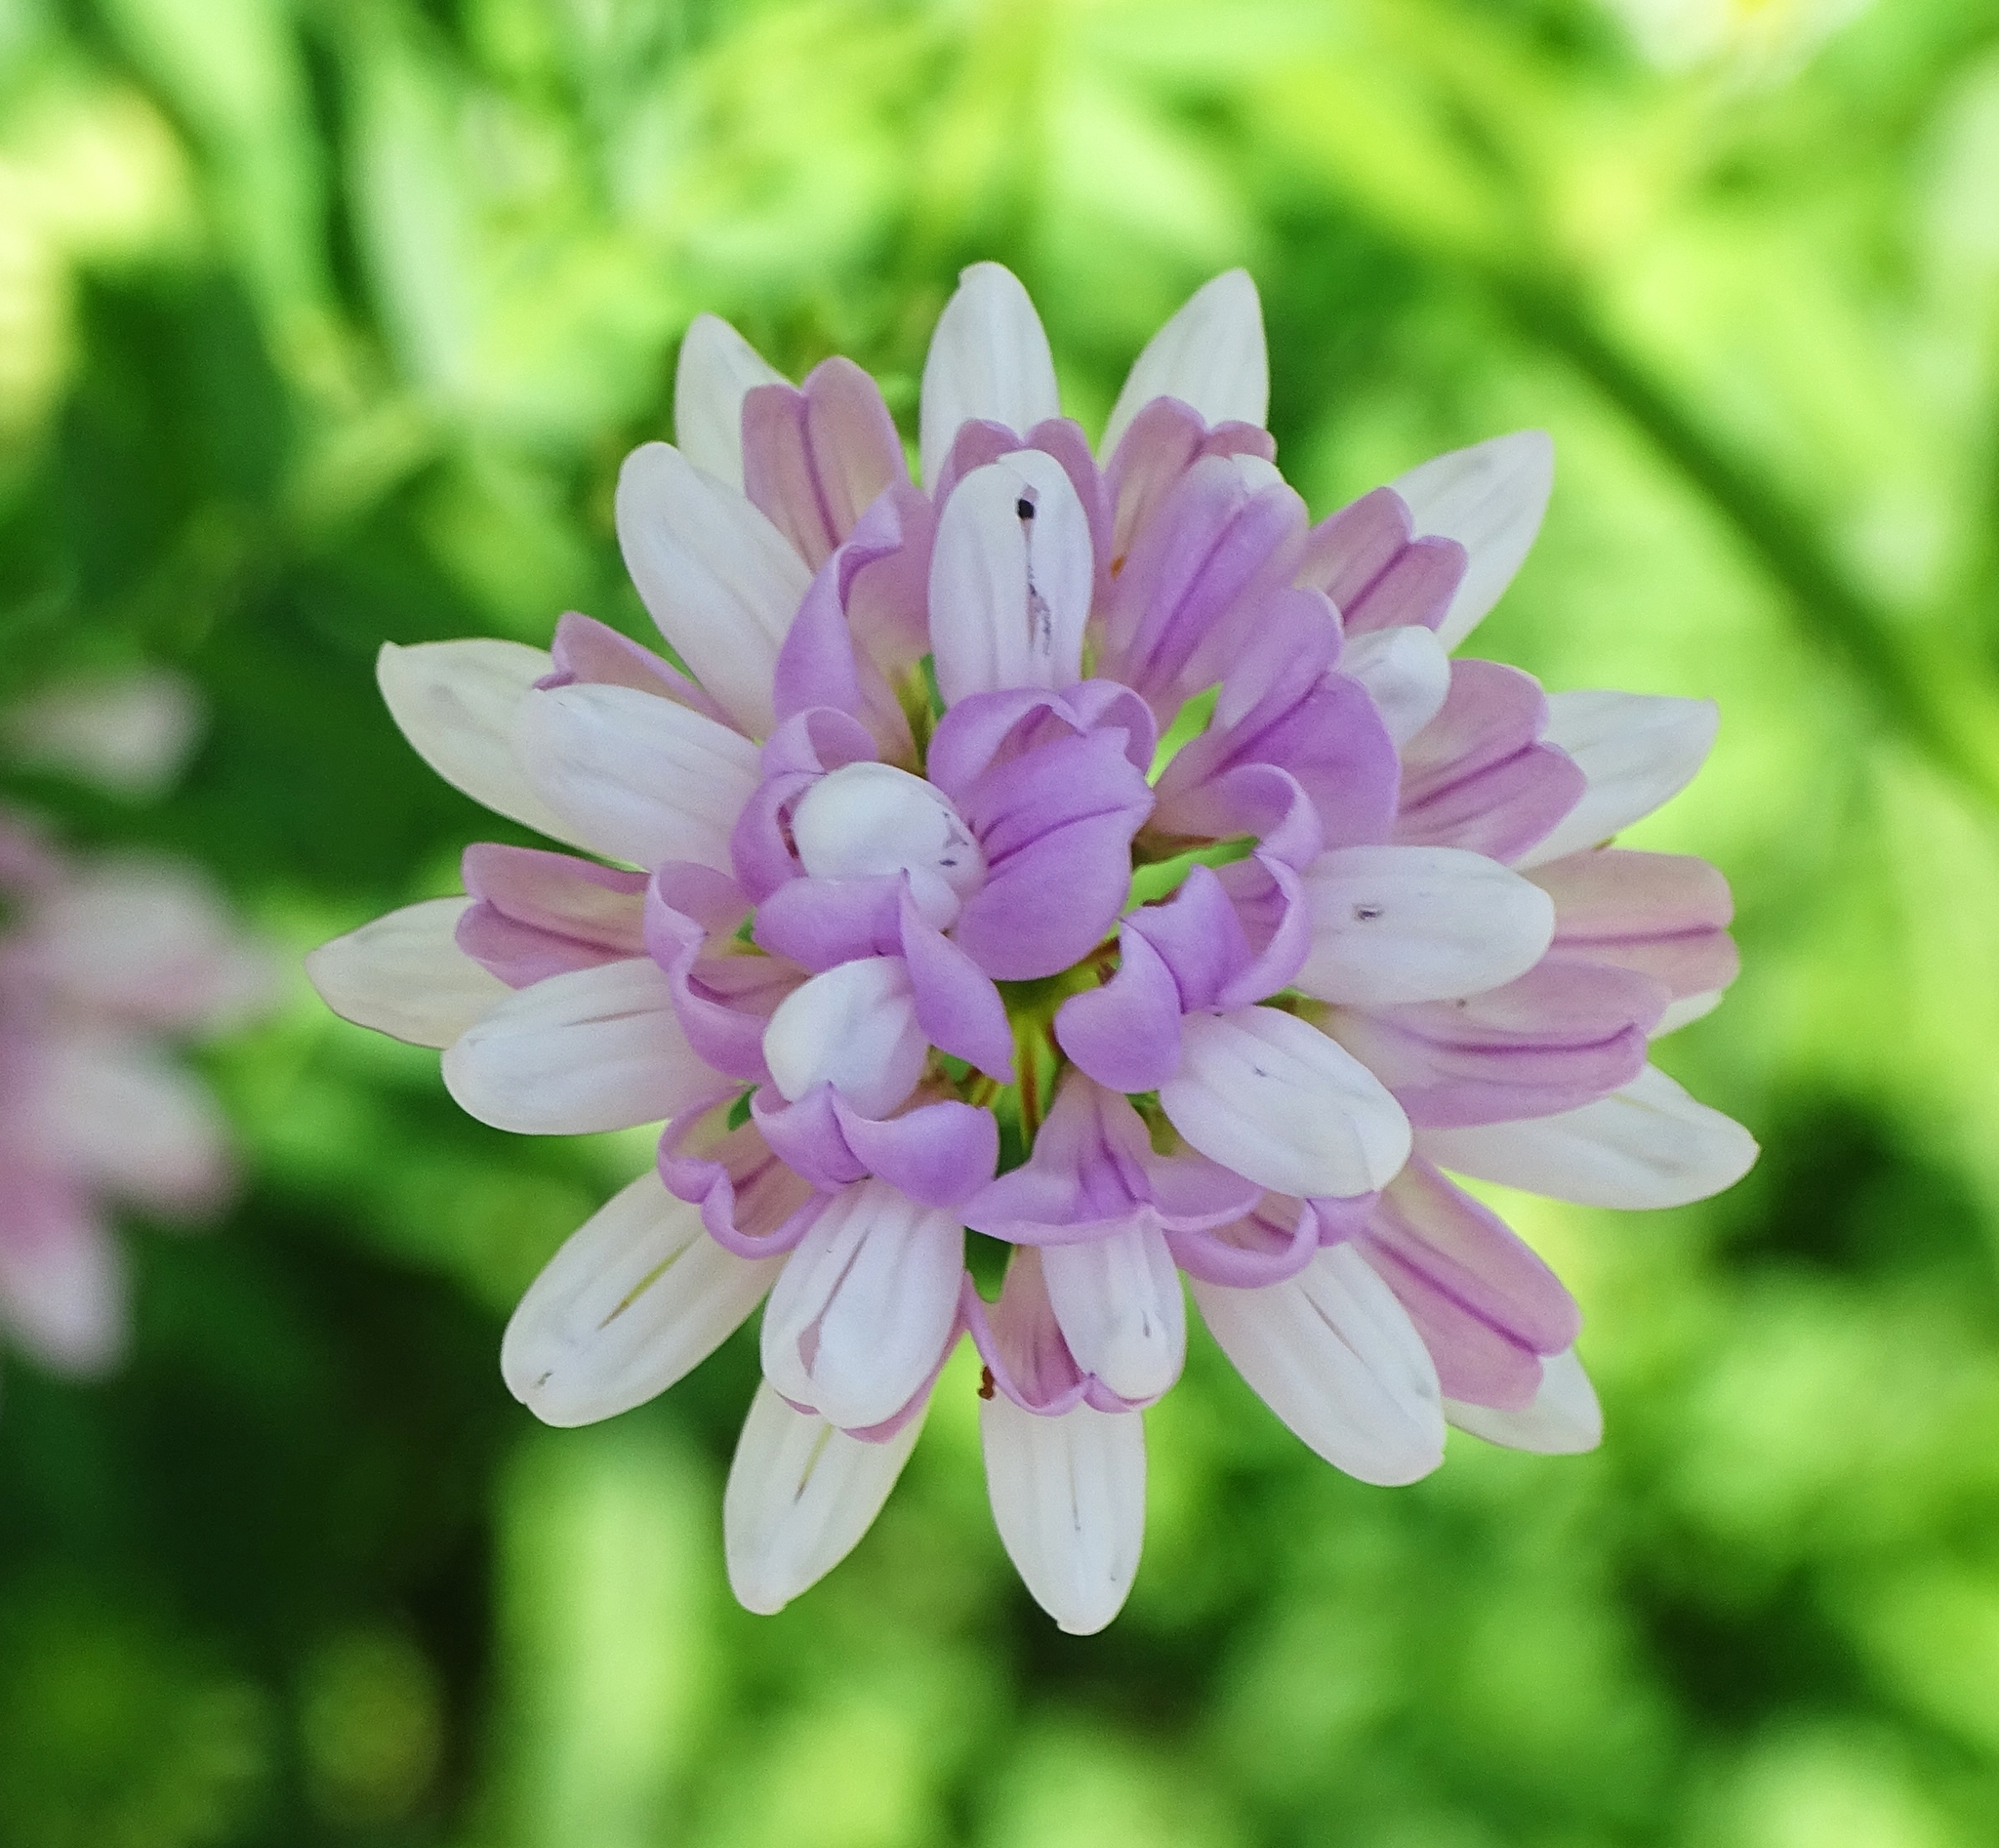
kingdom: Plantae
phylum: Tracheophyta
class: Magnoliopsida
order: Fabales
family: Fabaceae
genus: Coronilla
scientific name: Coronilla varia
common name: Crownvetch
